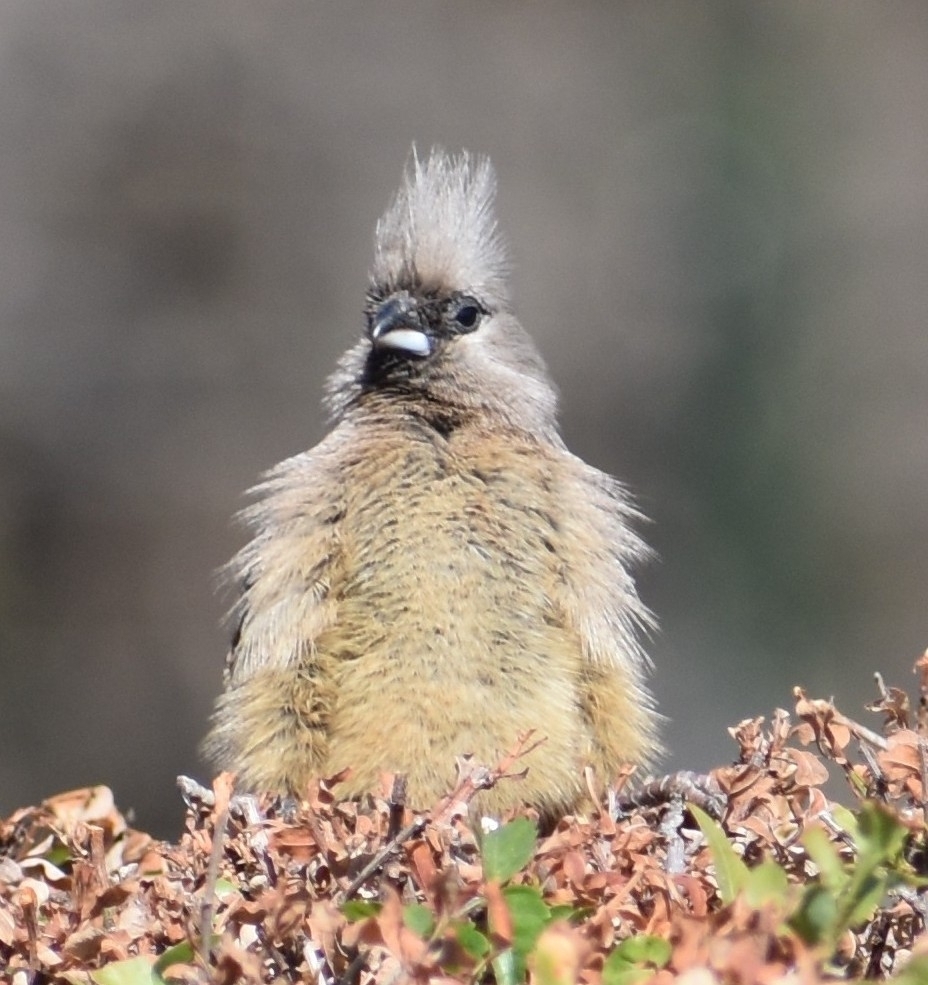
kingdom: Animalia
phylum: Chordata
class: Aves
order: Coliiformes
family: Coliidae
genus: Colius
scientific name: Colius striatus
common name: Speckled mousebird
